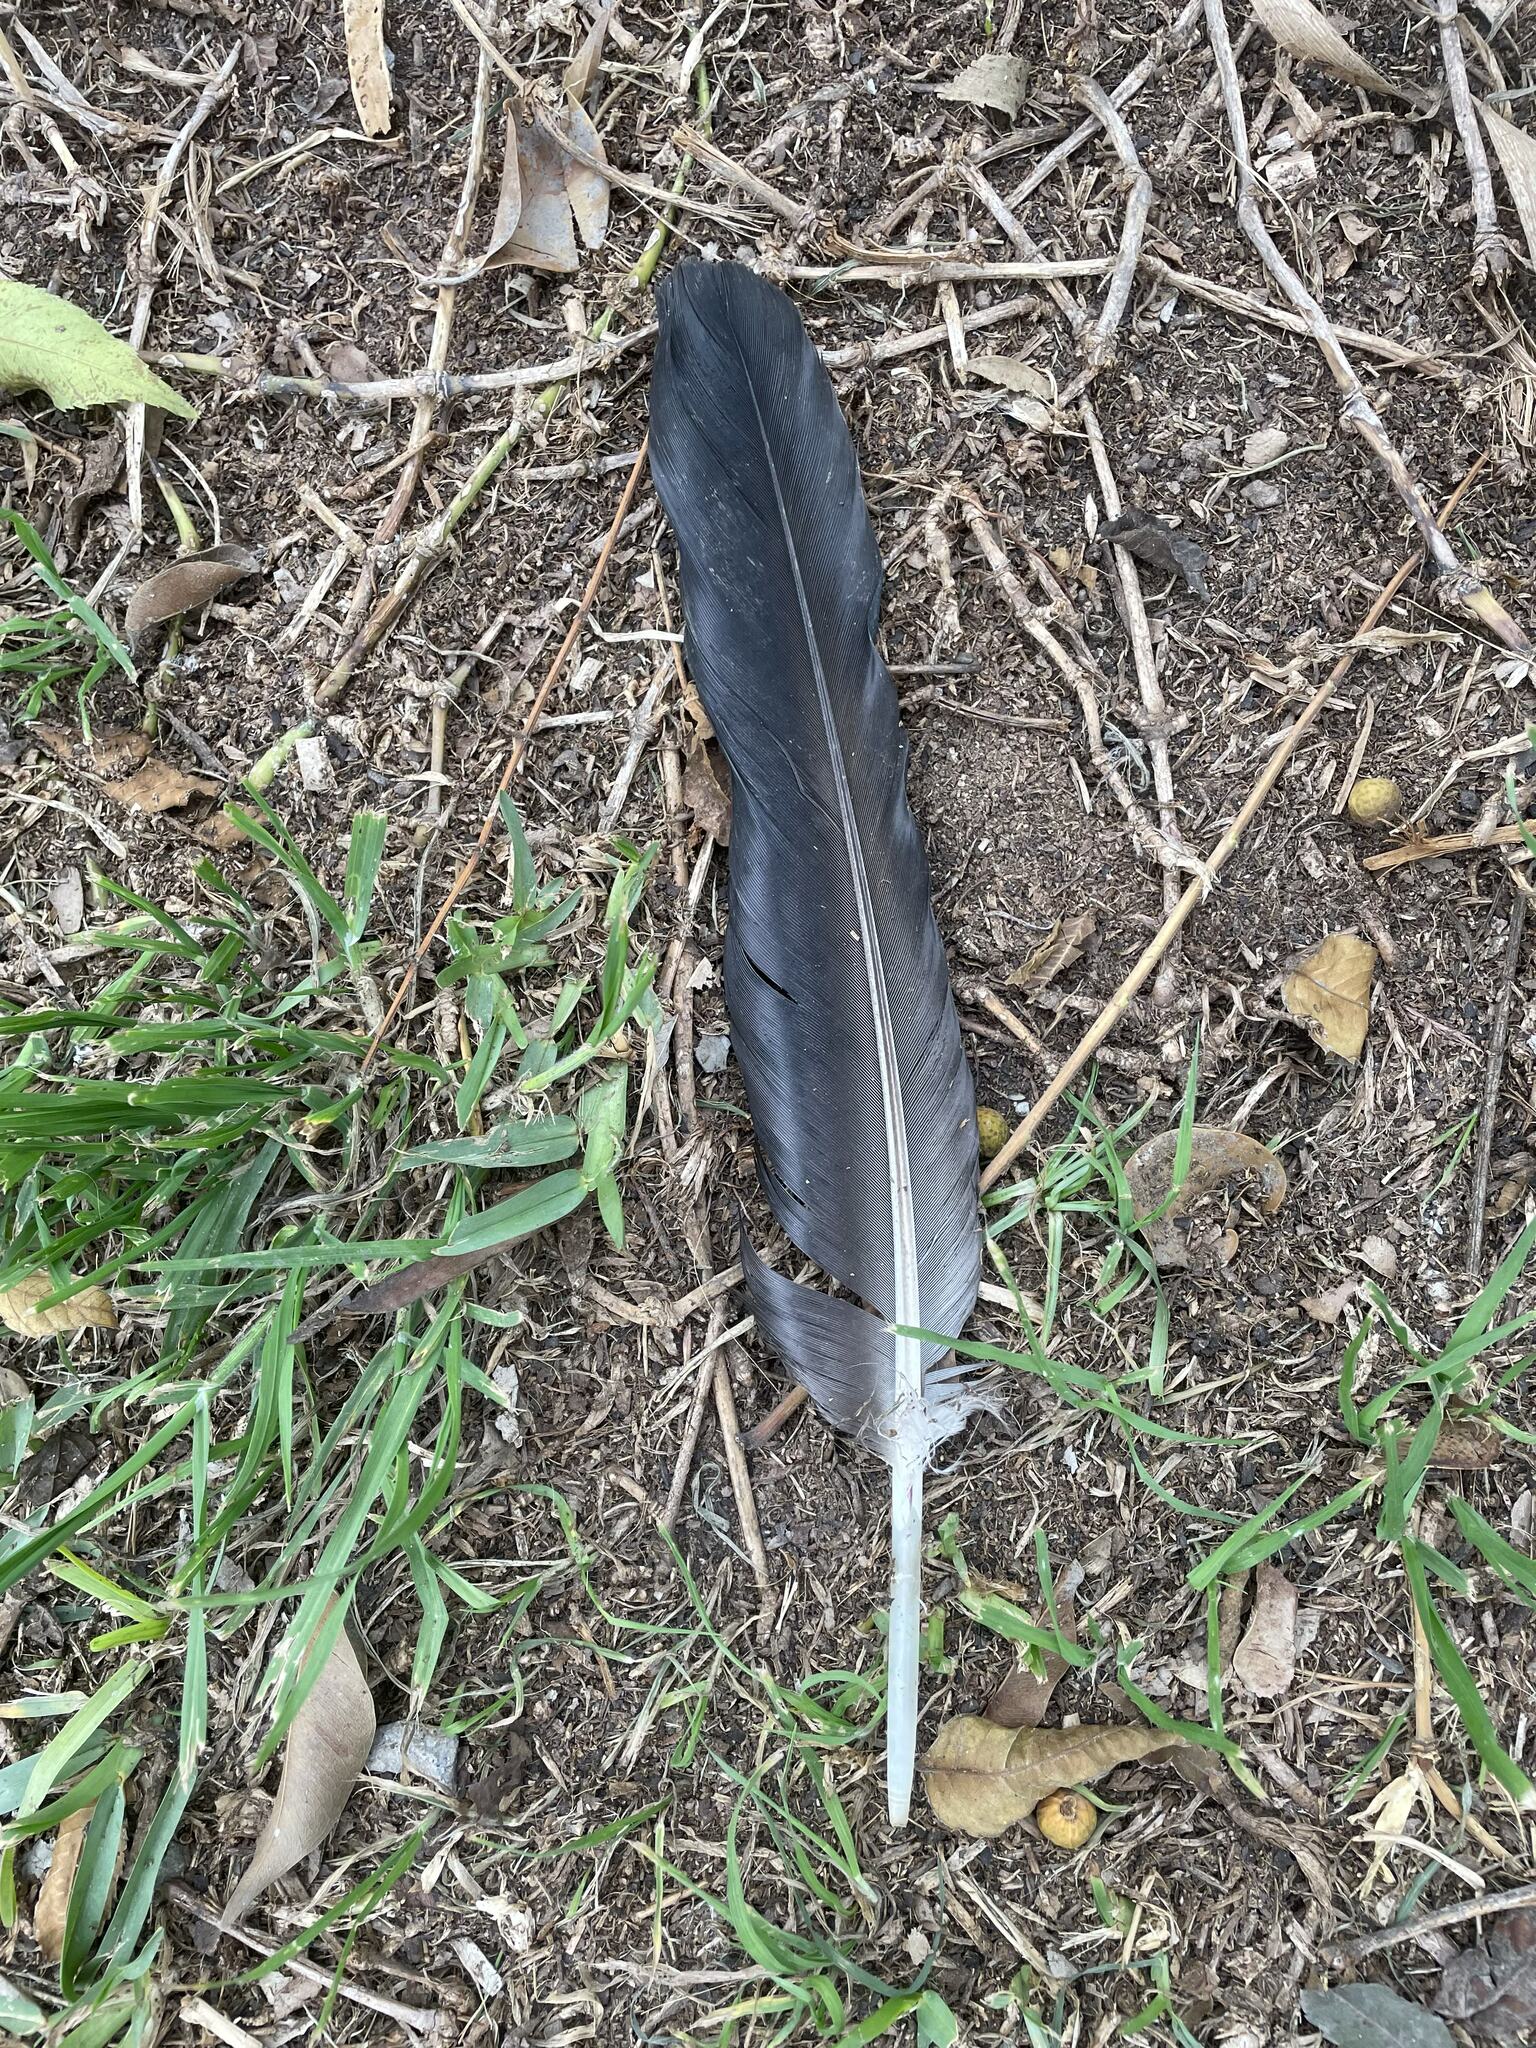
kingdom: Animalia
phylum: Chordata
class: Aves
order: Accipitriformes
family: Cathartidae
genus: Coragyps
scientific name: Coragyps atratus
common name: Black vulture
